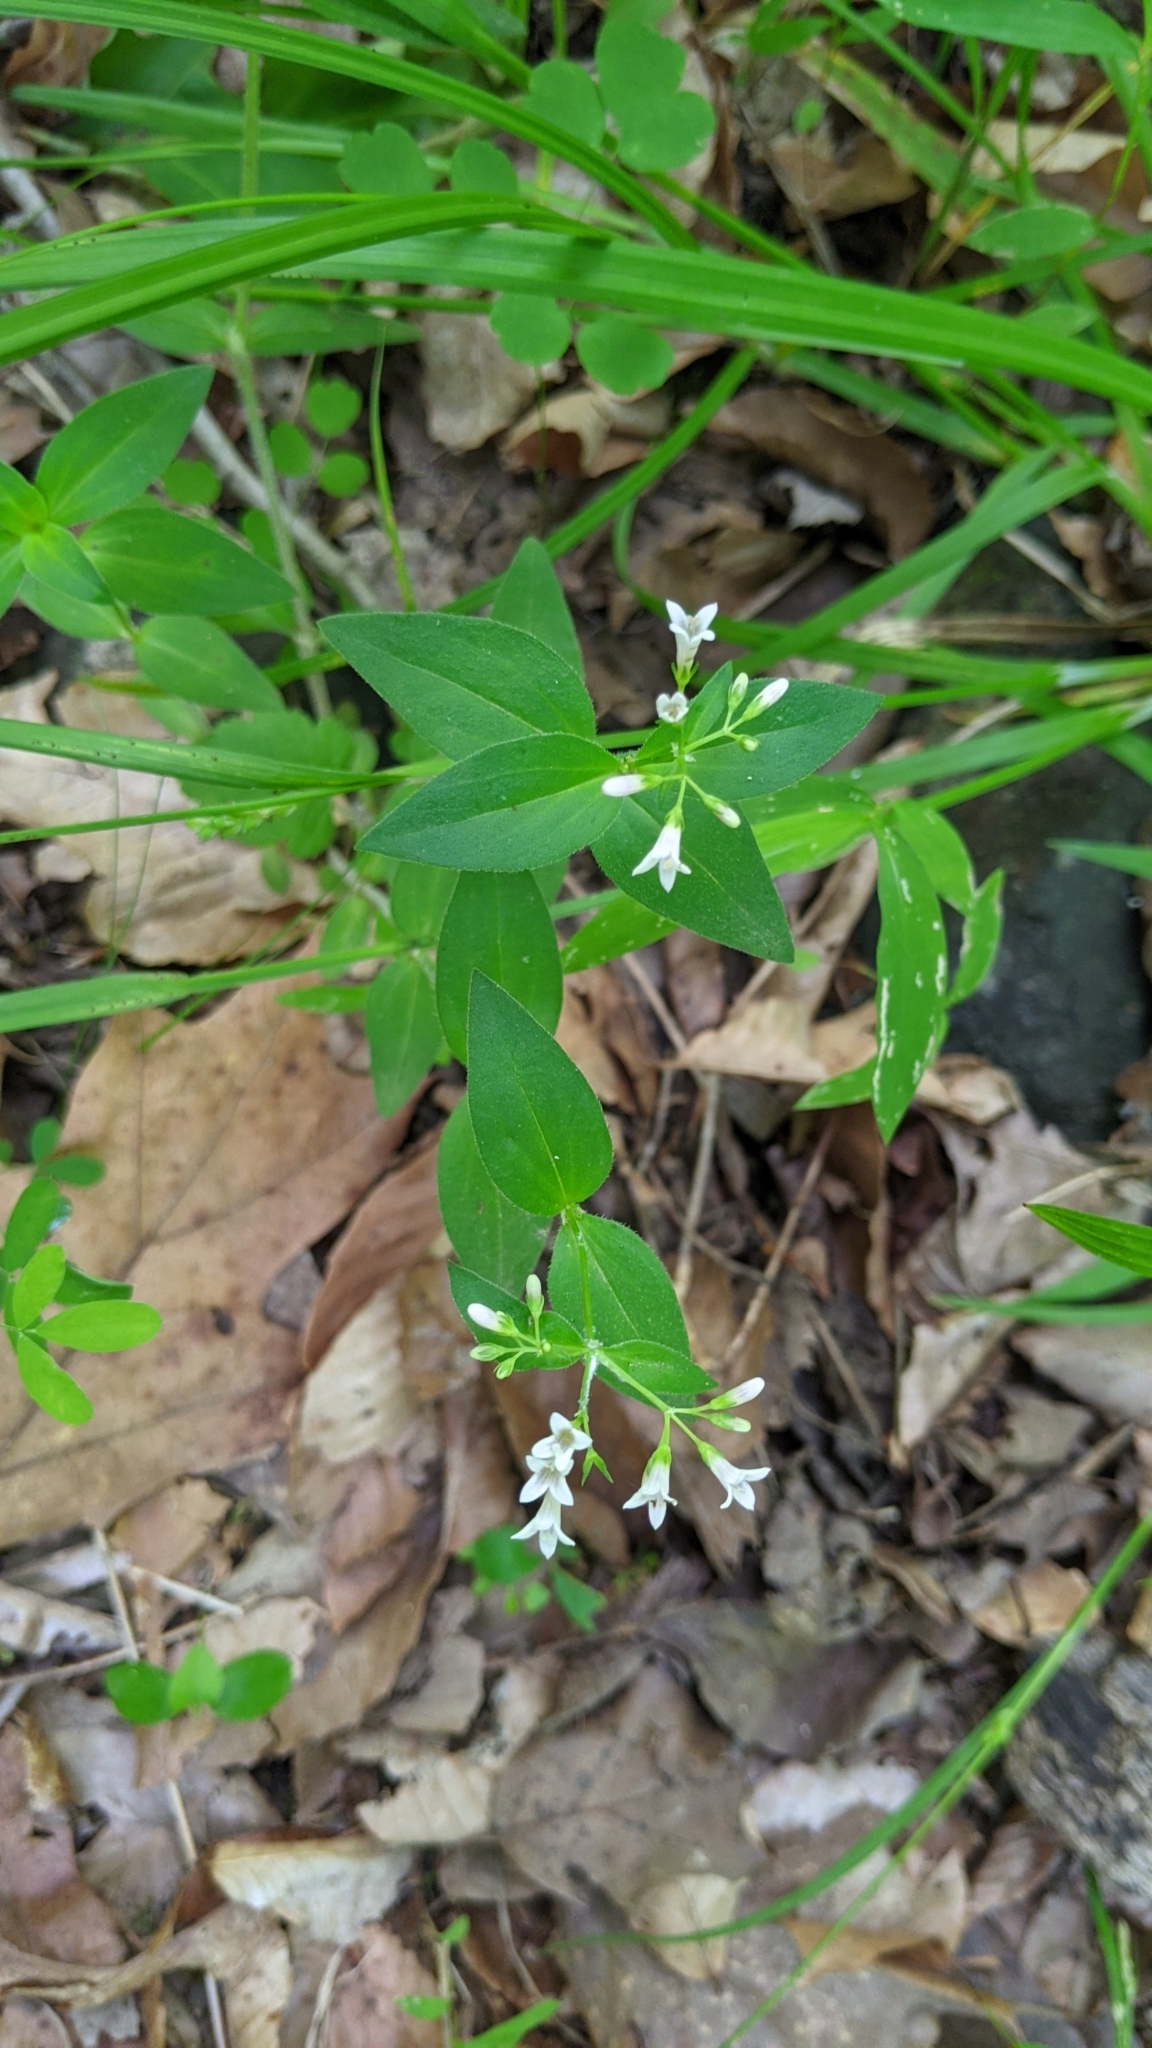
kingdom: Plantae
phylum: Tracheophyta
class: Magnoliopsida
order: Gentianales
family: Rubiaceae
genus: Houstonia
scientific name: Houstonia purpurea
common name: Summer bluet
